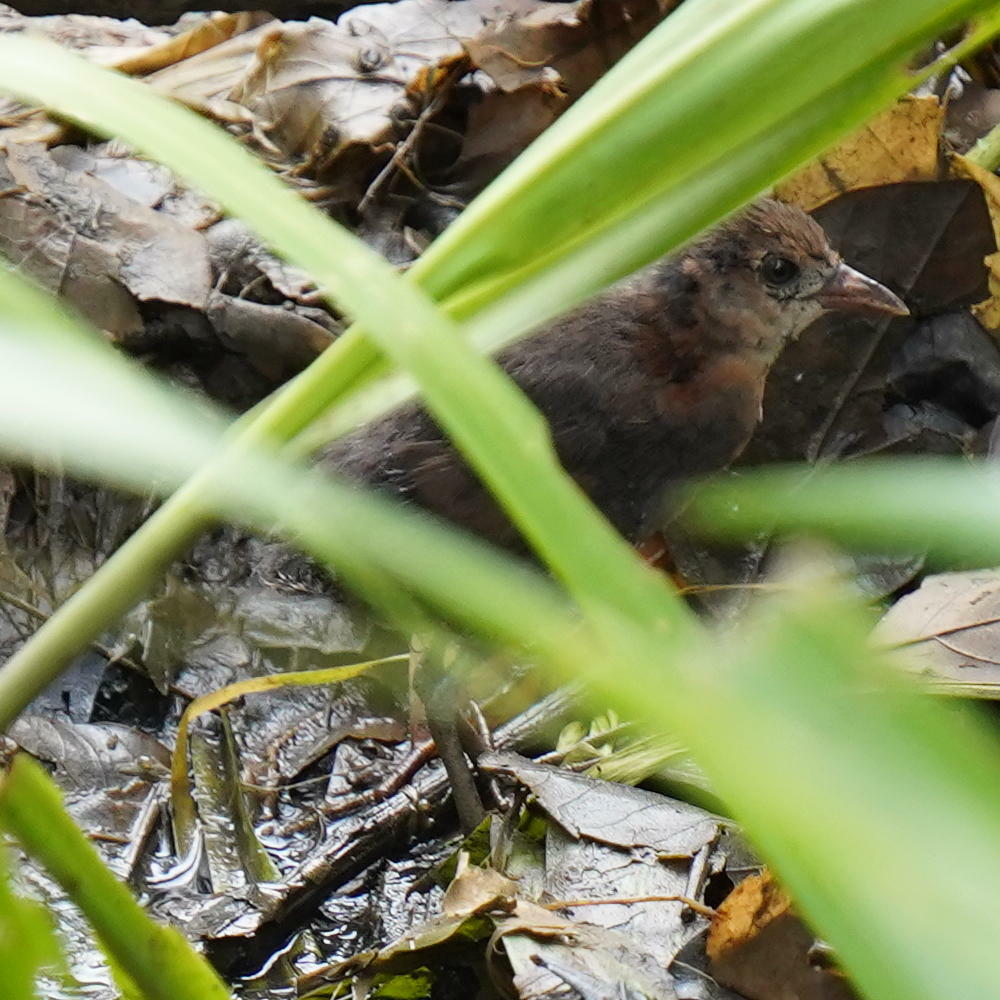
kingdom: Animalia
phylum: Chordata
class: Aves
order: Gruiformes
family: Rallidae
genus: Laterallus
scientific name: Laterallus albigularis
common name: White-throated crake
